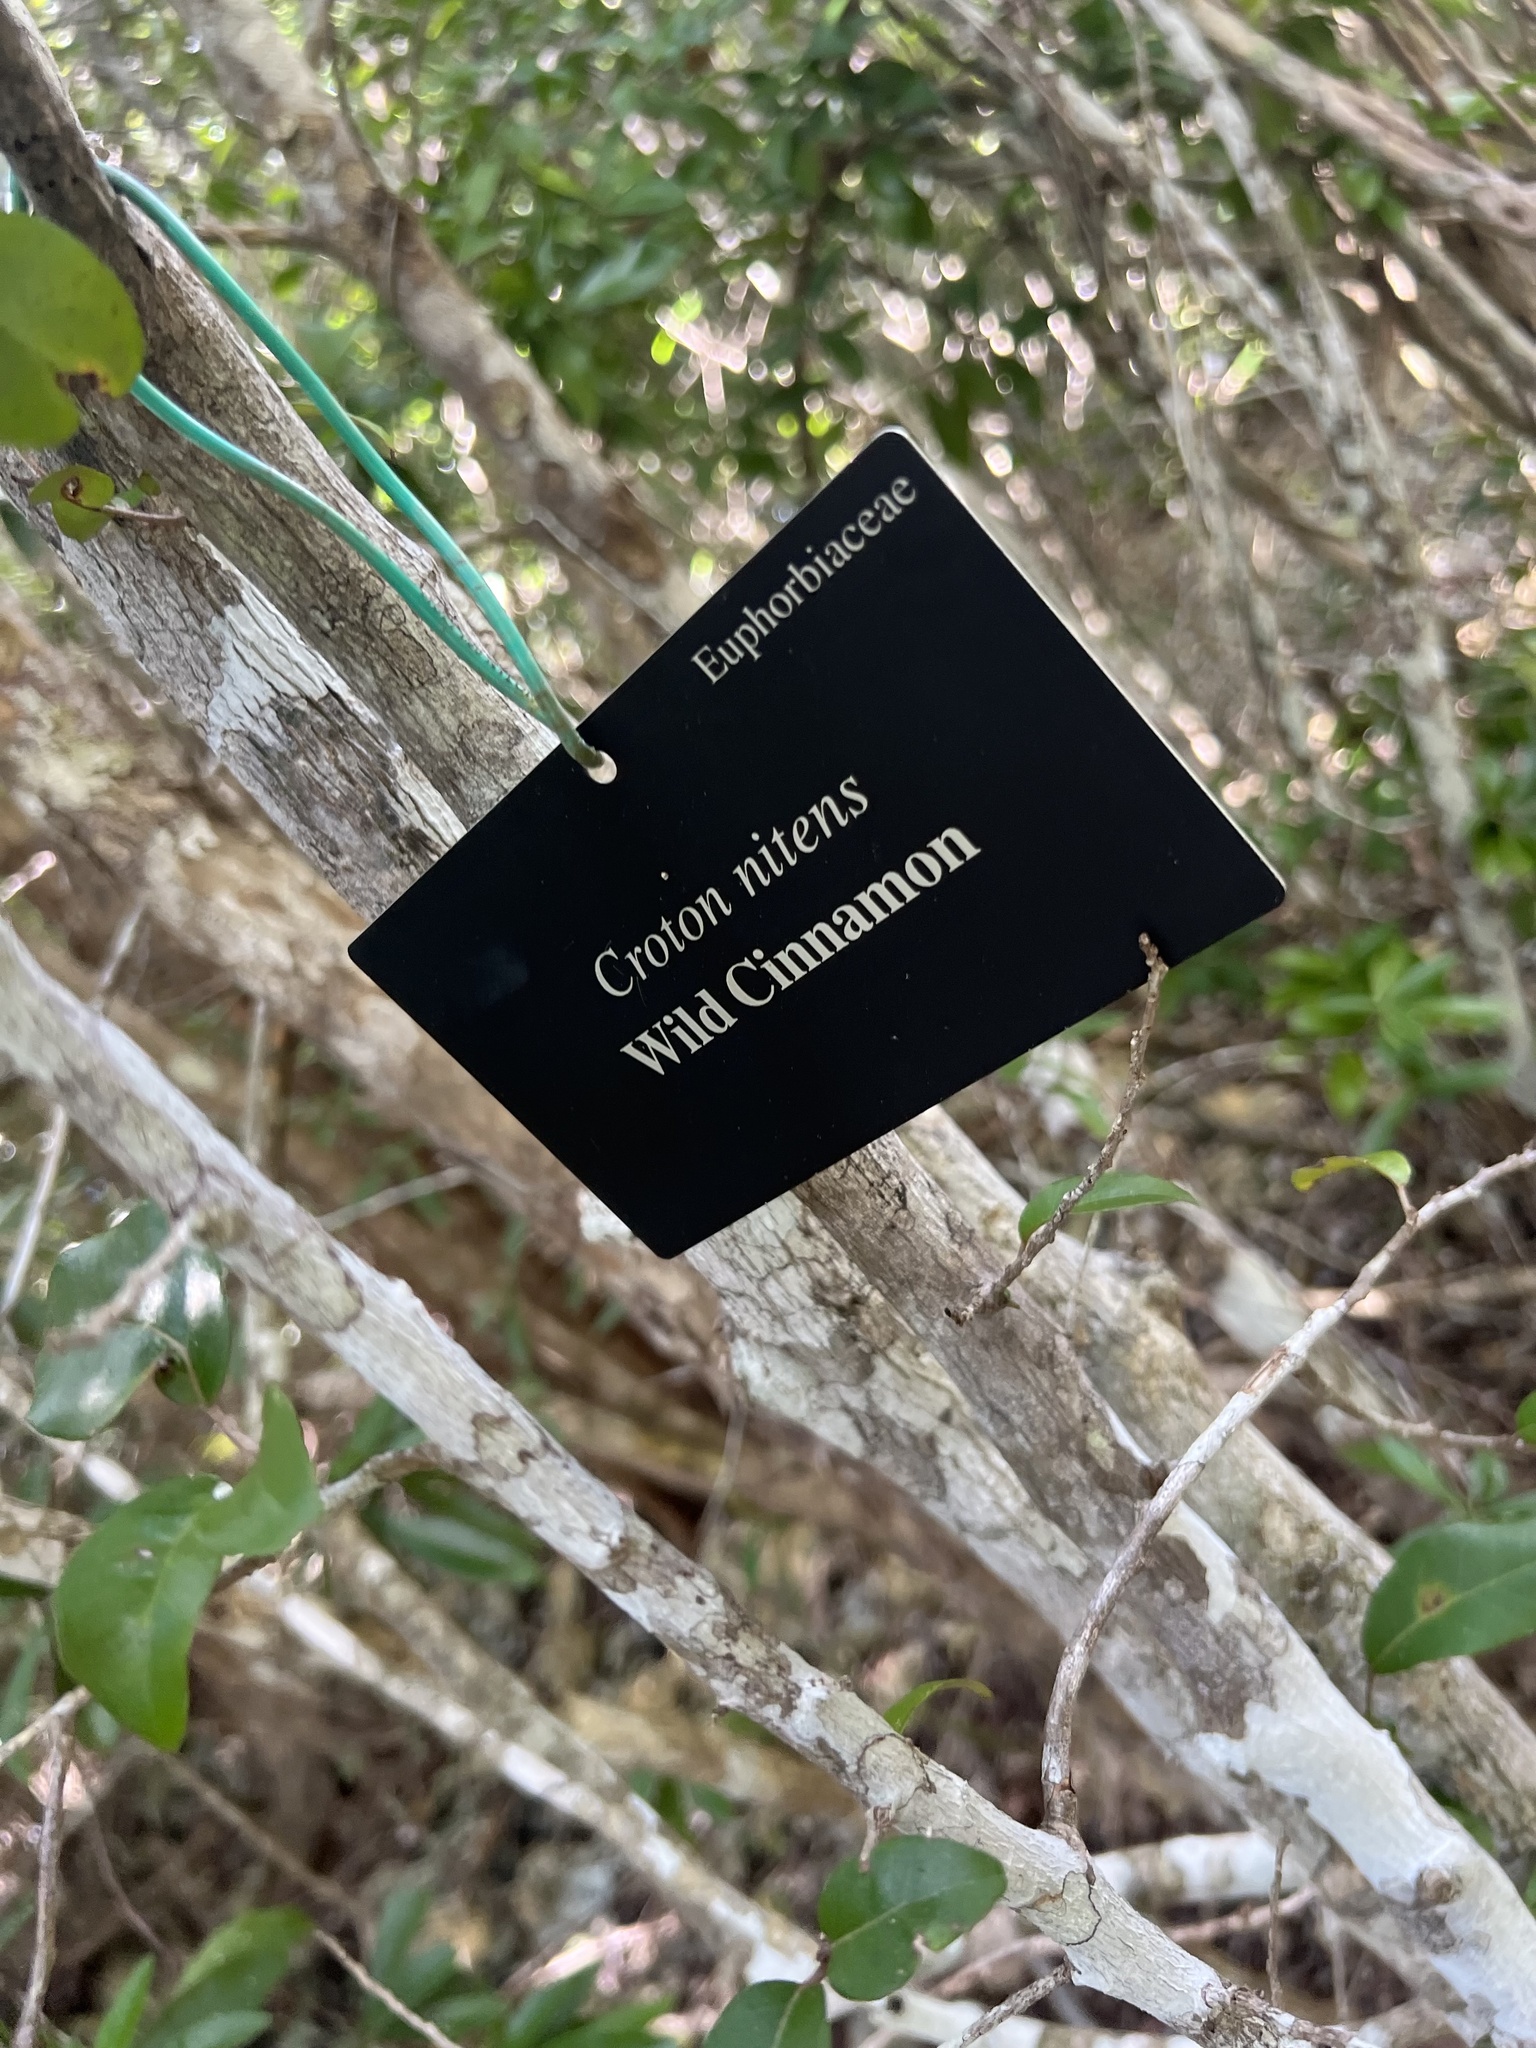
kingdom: Plantae
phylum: Tracheophyta
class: Magnoliopsida
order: Malpighiales
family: Euphorbiaceae
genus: Croton
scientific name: Croton nitens
